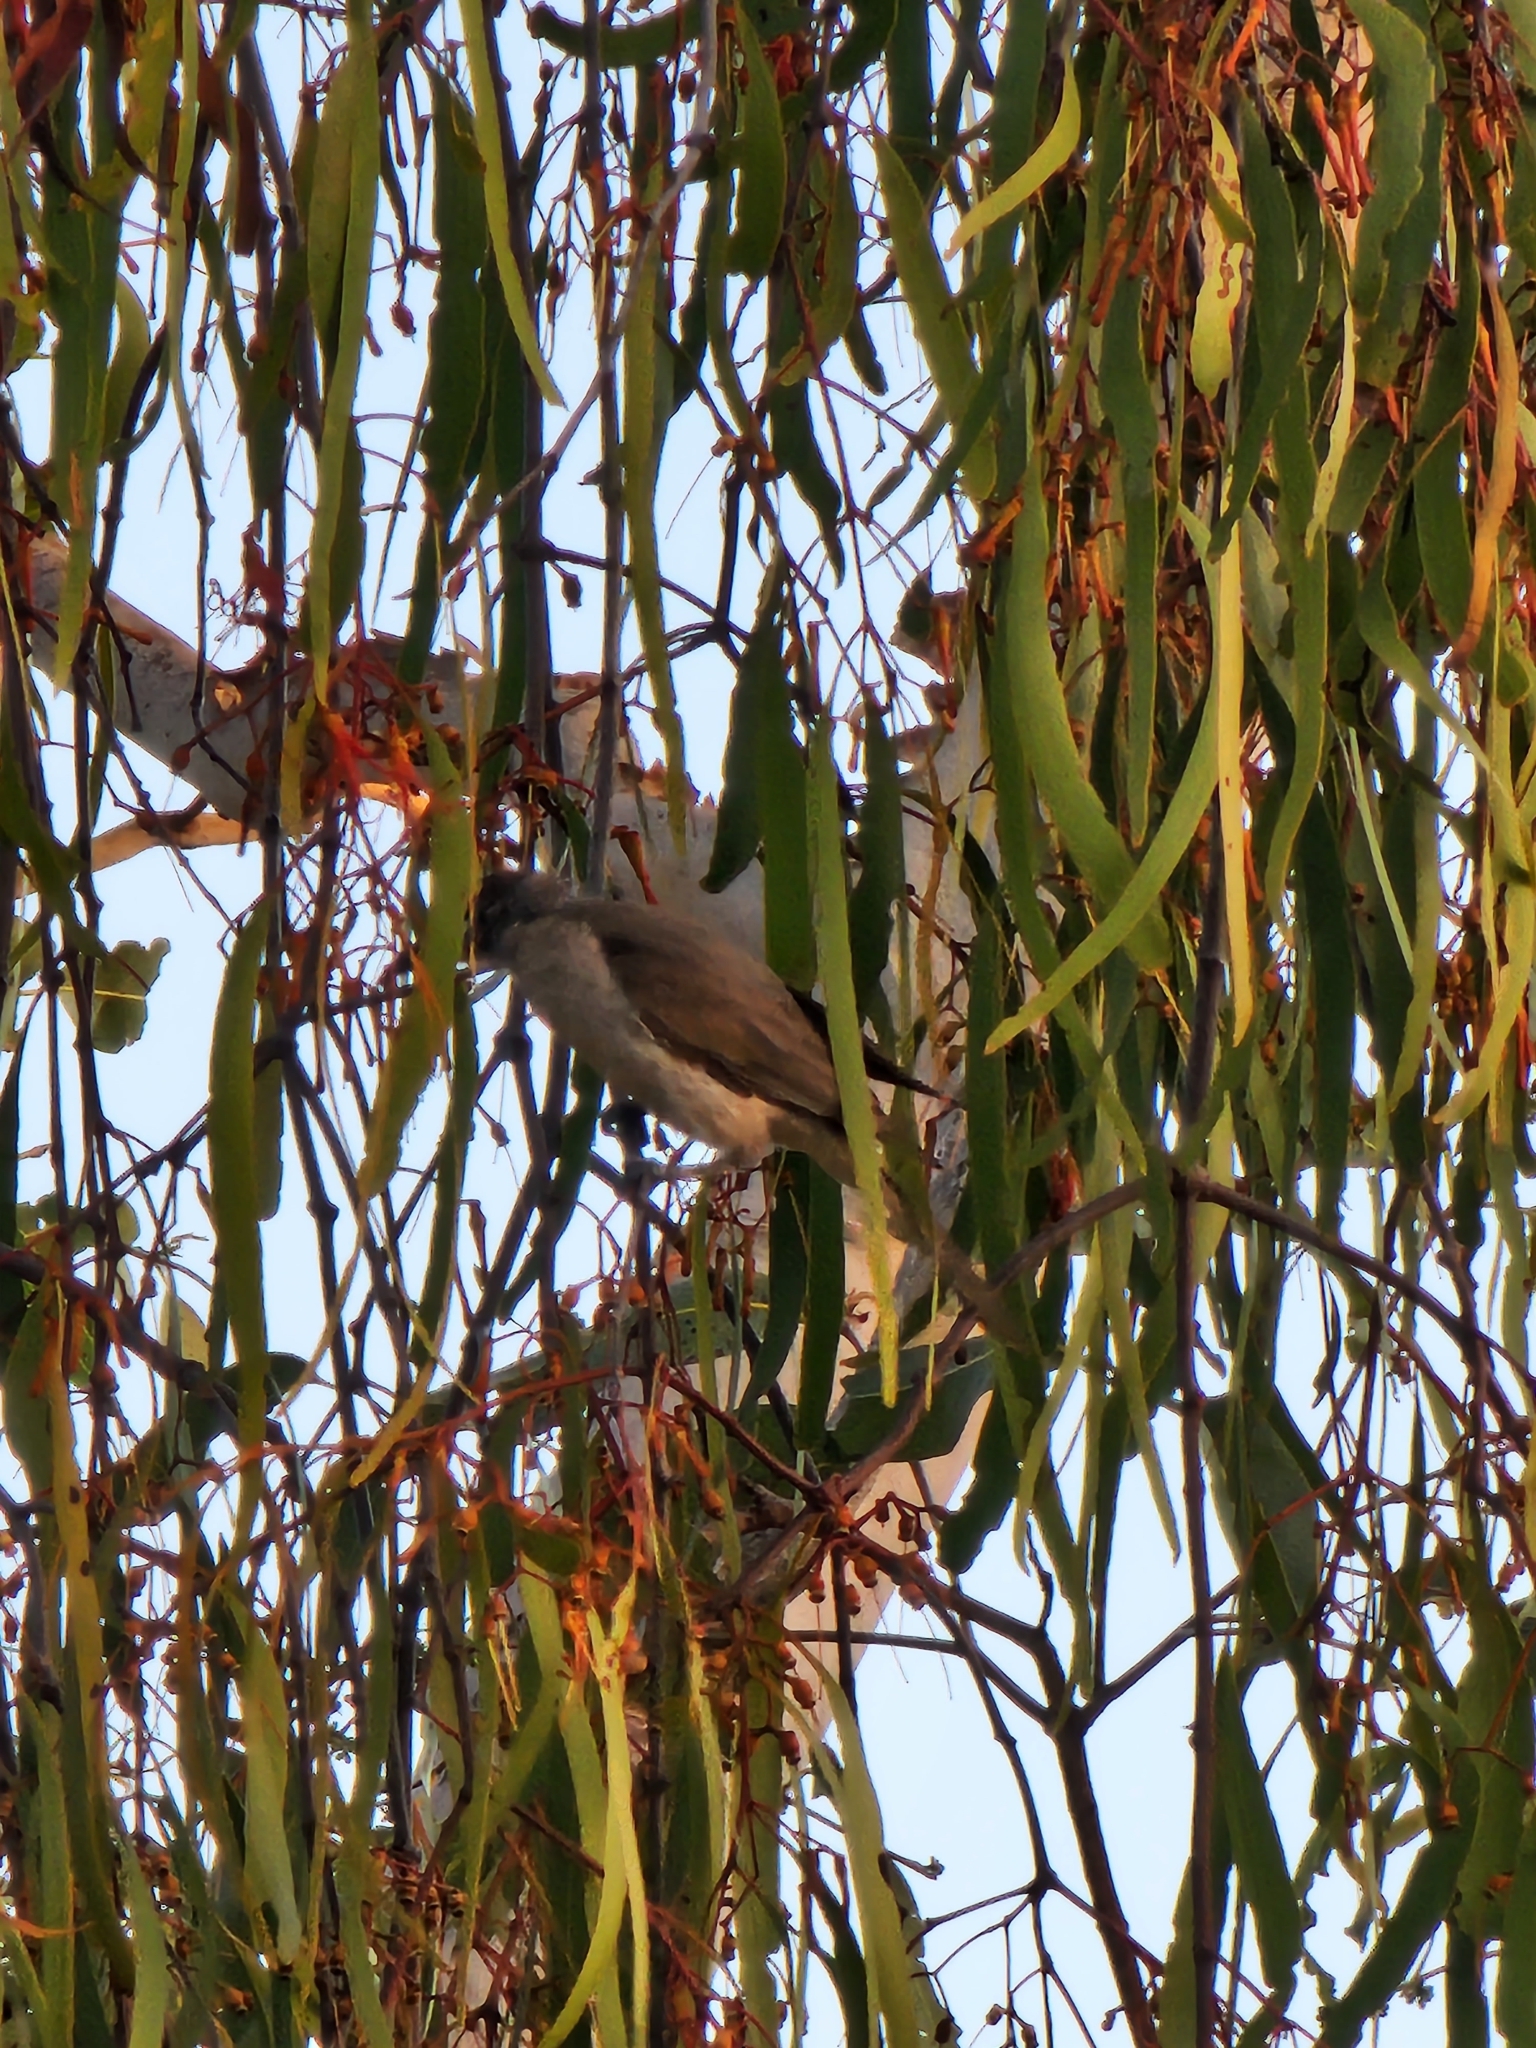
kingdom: Animalia
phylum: Chordata
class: Aves
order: Passeriformes
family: Meliphagidae
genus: Philemon
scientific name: Philemon citreogularis
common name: Little friarbird
